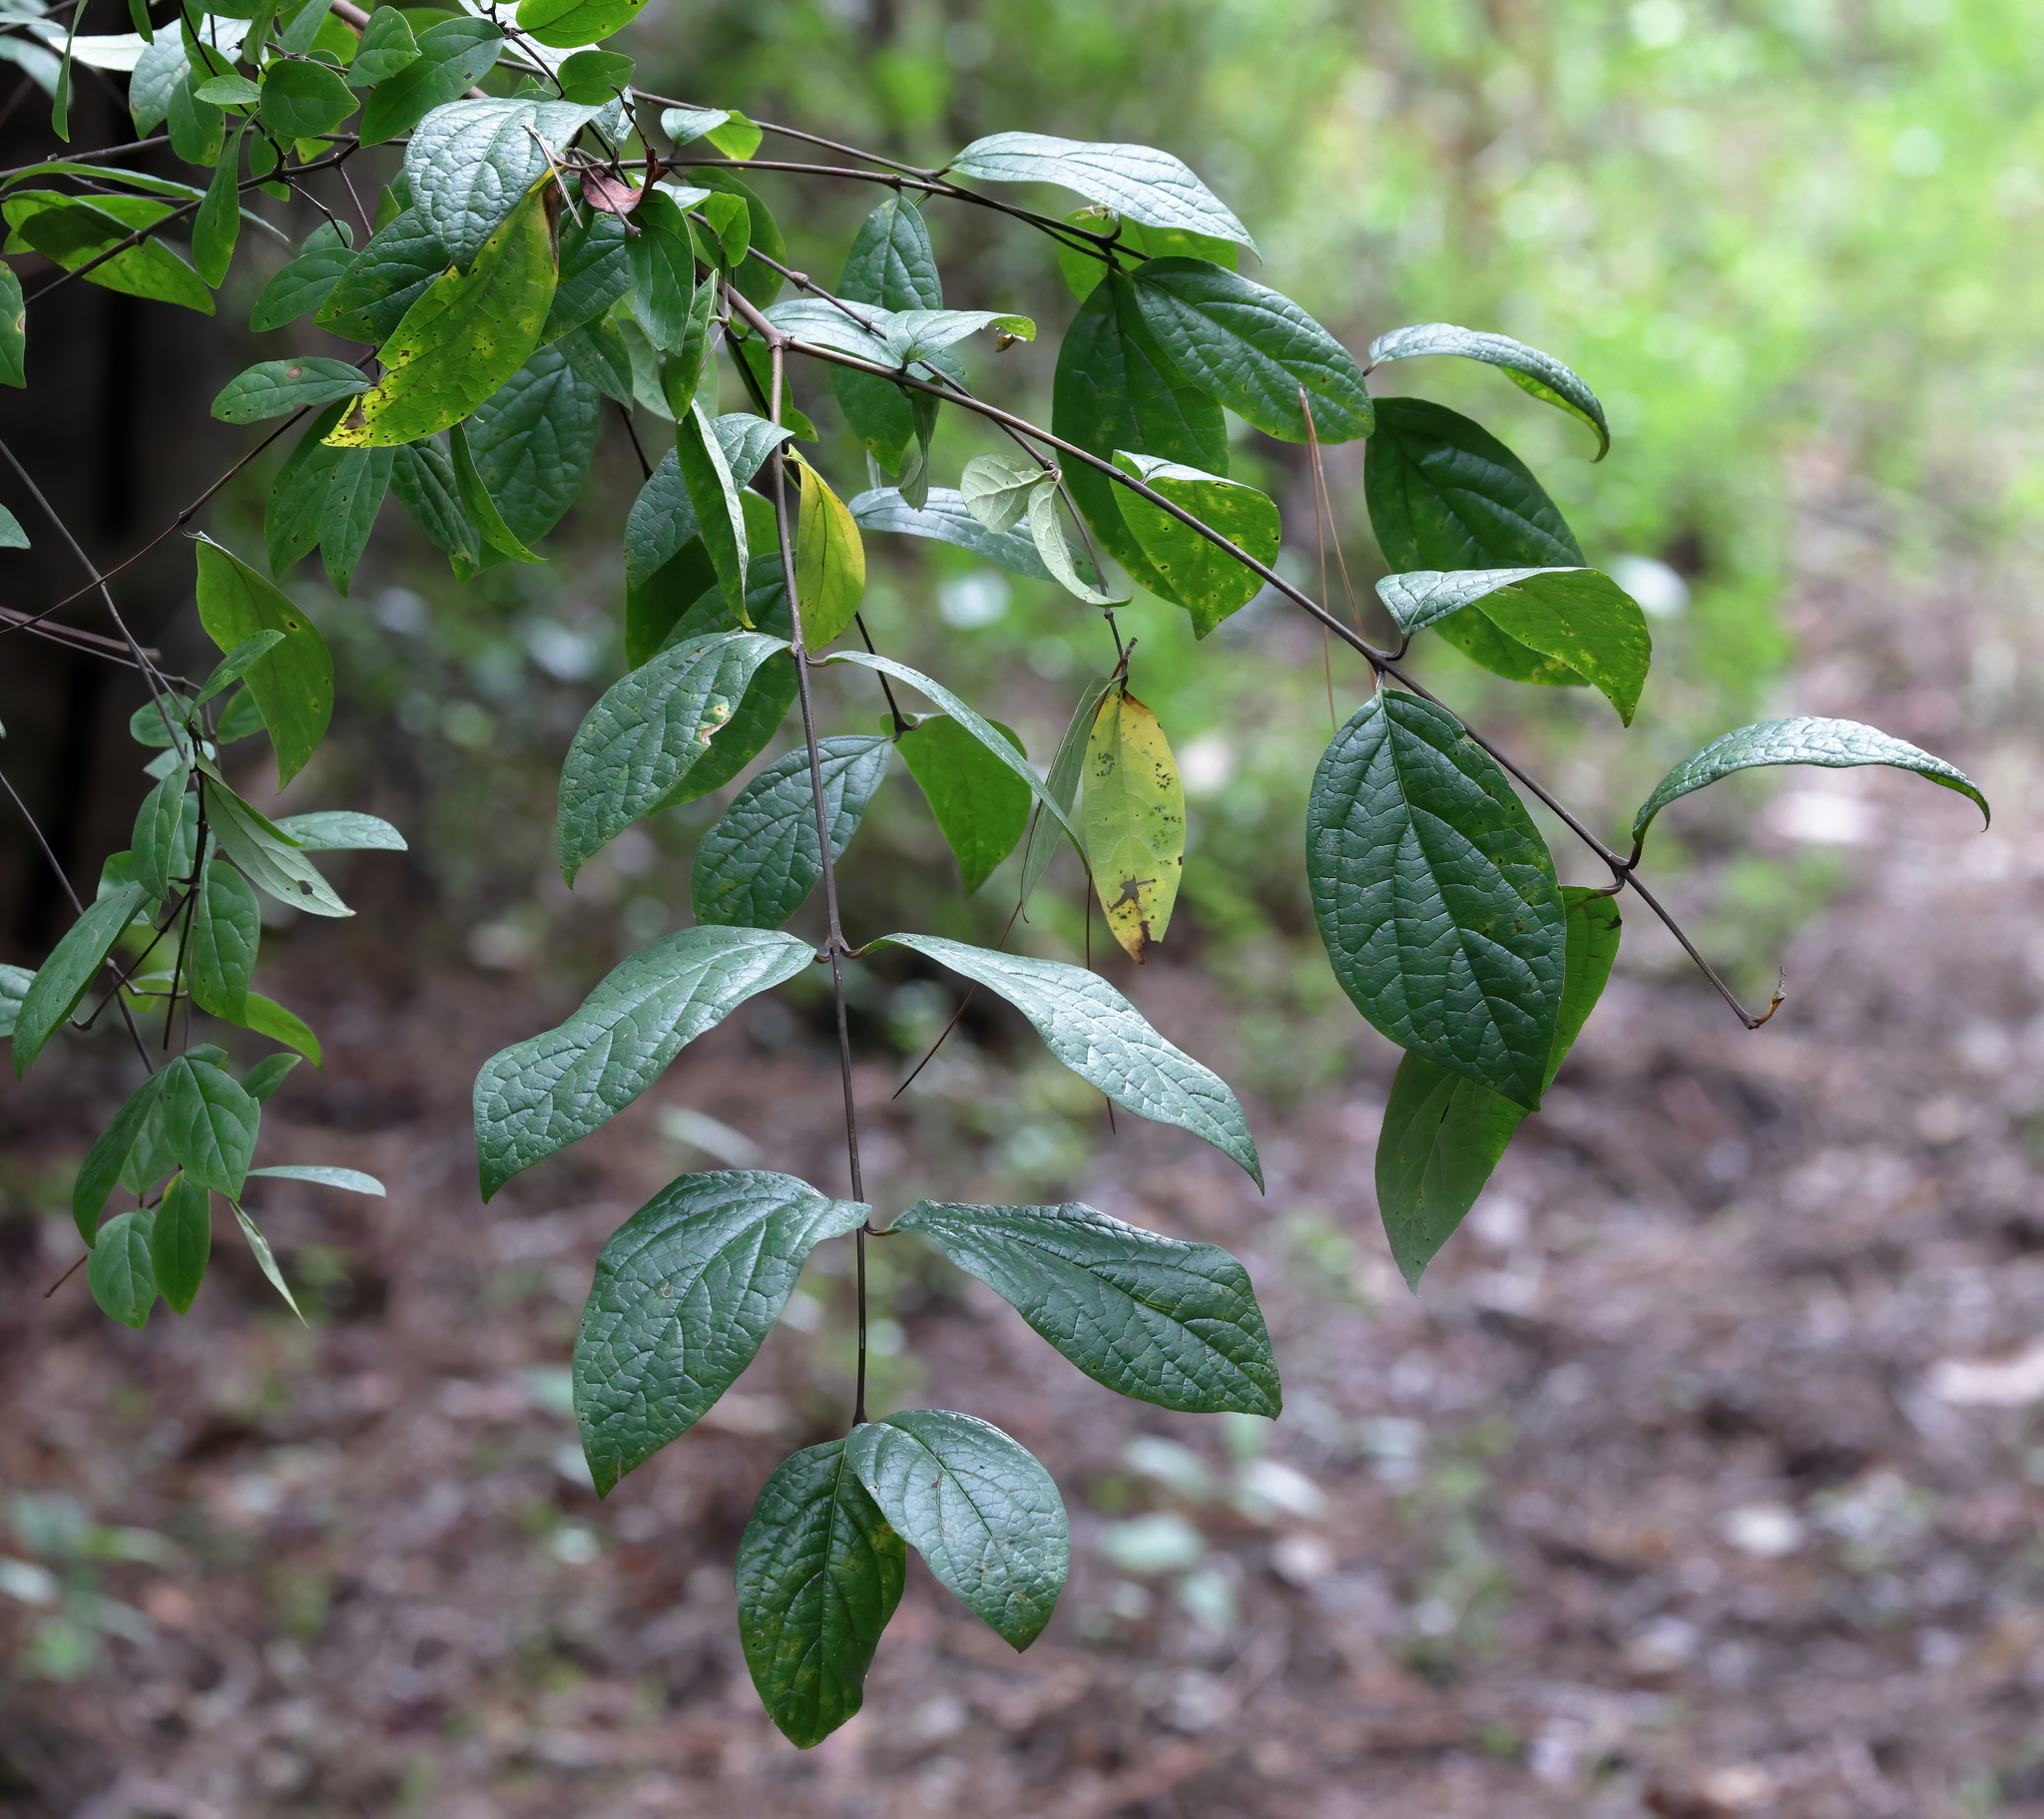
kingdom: Plantae
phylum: Tracheophyta
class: Magnoliopsida
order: Laurales
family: Calycanthaceae
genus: Calycanthus
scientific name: Calycanthus floridus
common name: Carolina-allspice
